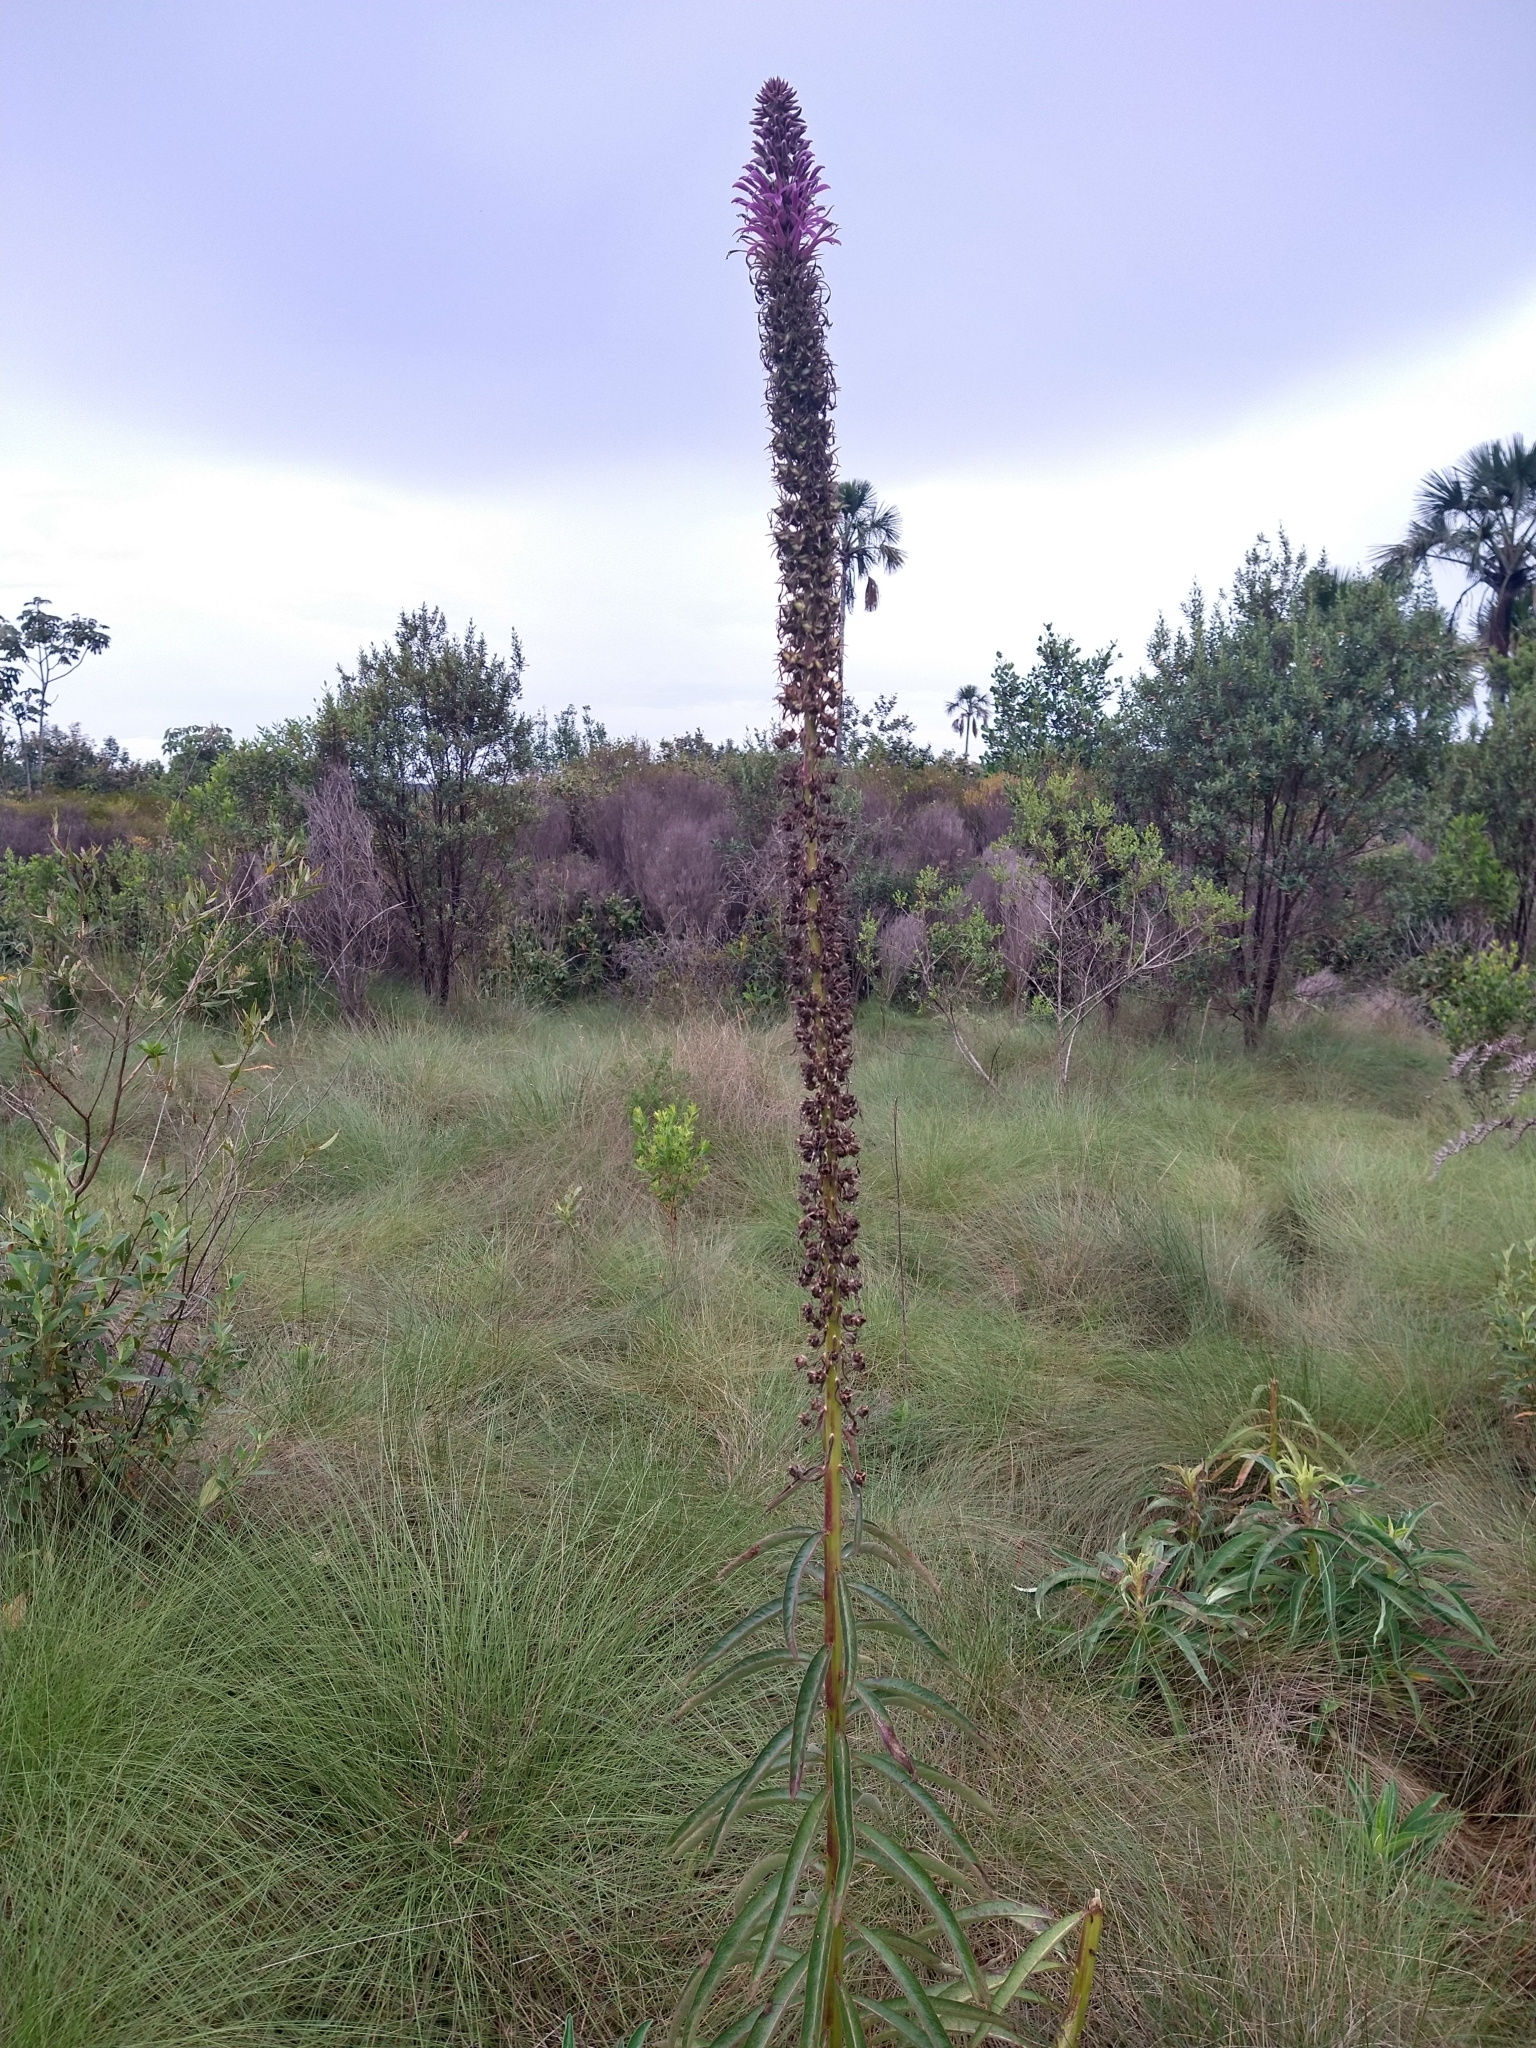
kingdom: Plantae
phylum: Tracheophyta
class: Magnoliopsida
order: Asterales
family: Campanulaceae
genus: Lobelia
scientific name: Lobelia brasiliensis
